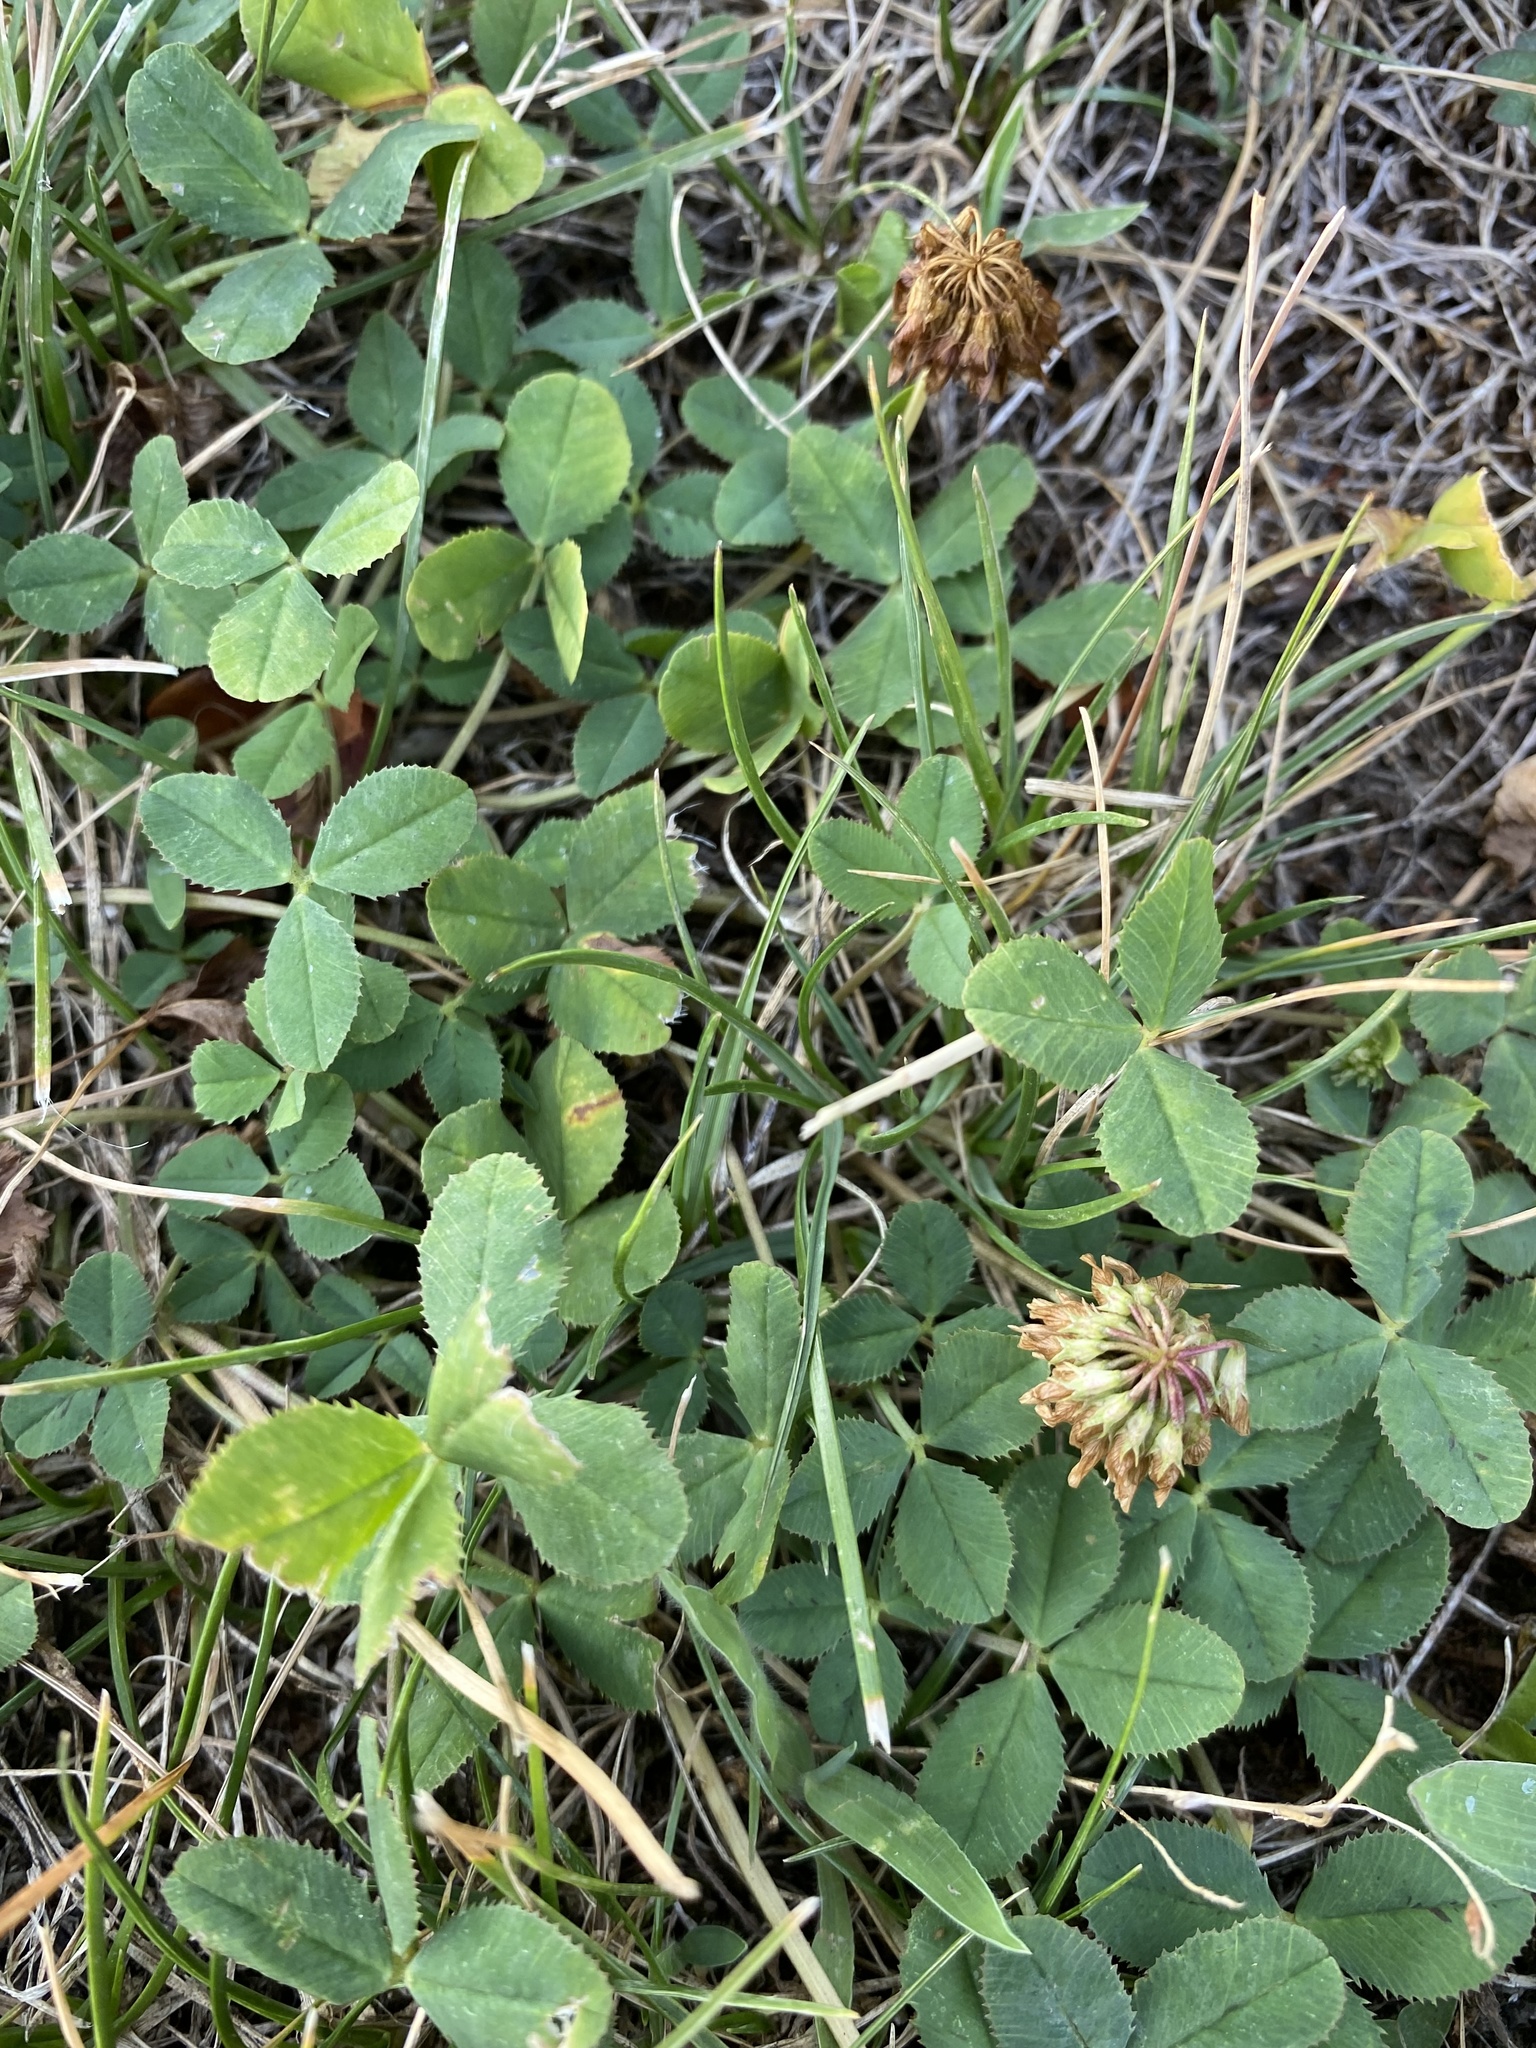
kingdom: Plantae
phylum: Tracheophyta
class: Magnoliopsida
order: Fabales
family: Fabaceae
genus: Trifolium
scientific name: Trifolium repens
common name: White clover
